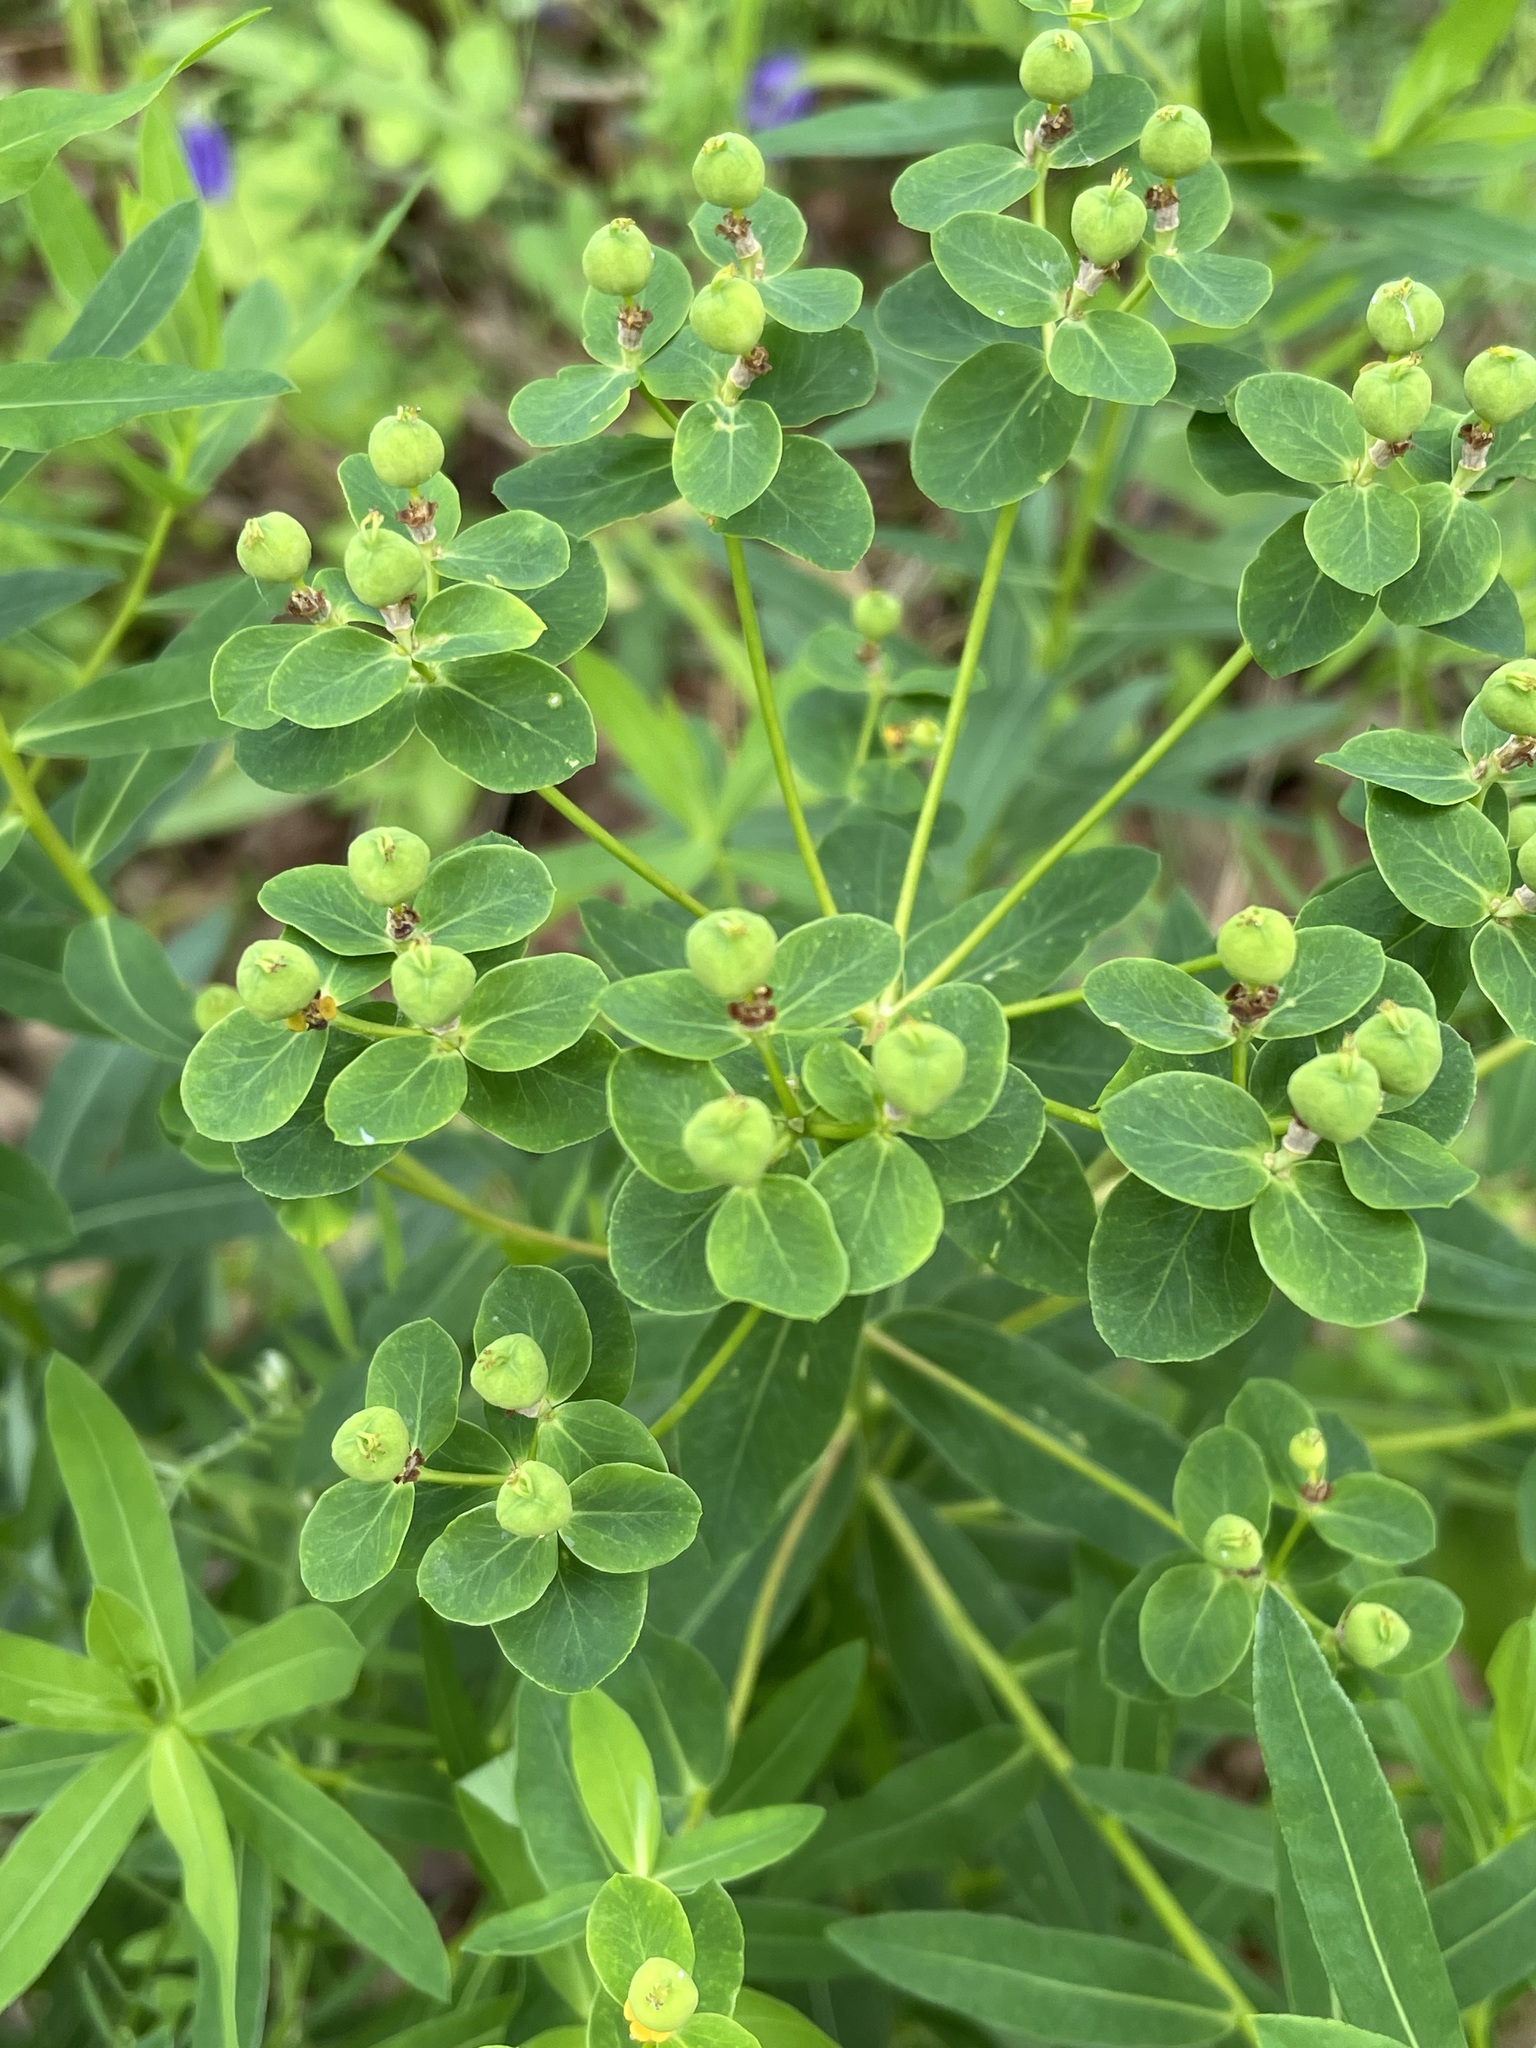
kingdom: Plantae
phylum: Tracheophyta
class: Magnoliopsida
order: Malpighiales
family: Euphorbiaceae
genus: Euphorbia
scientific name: Euphorbia semivillosa
